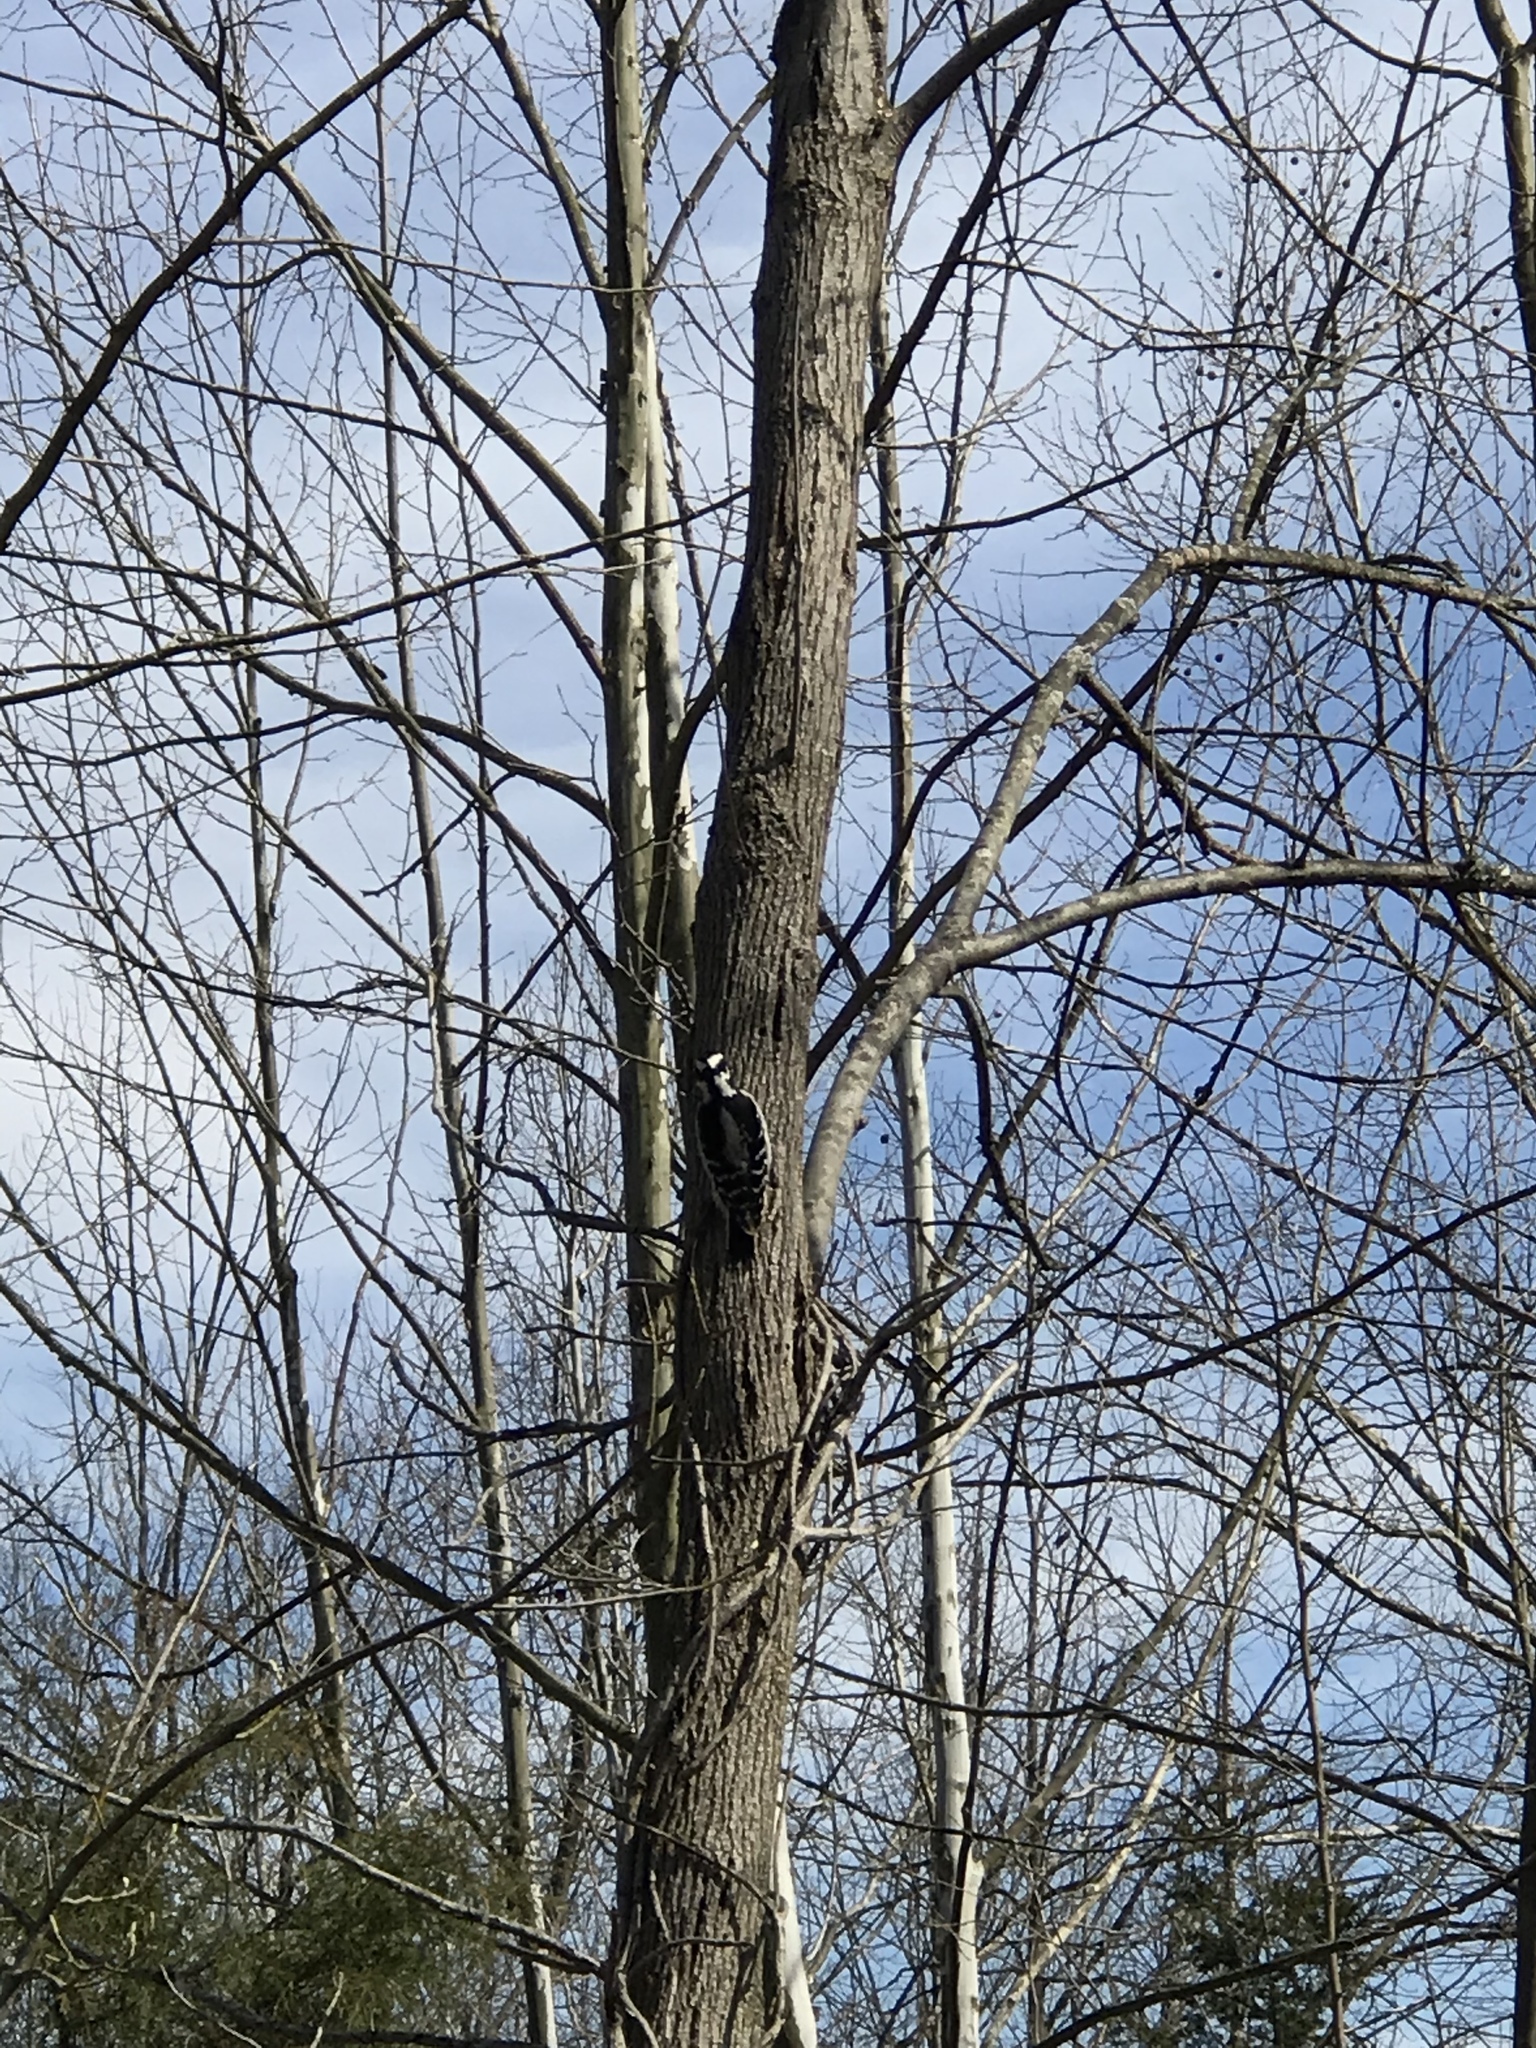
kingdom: Animalia
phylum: Chordata
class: Aves
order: Piciformes
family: Picidae
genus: Leuconotopicus
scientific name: Leuconotopicus villosus
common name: Hairy woodpecker
